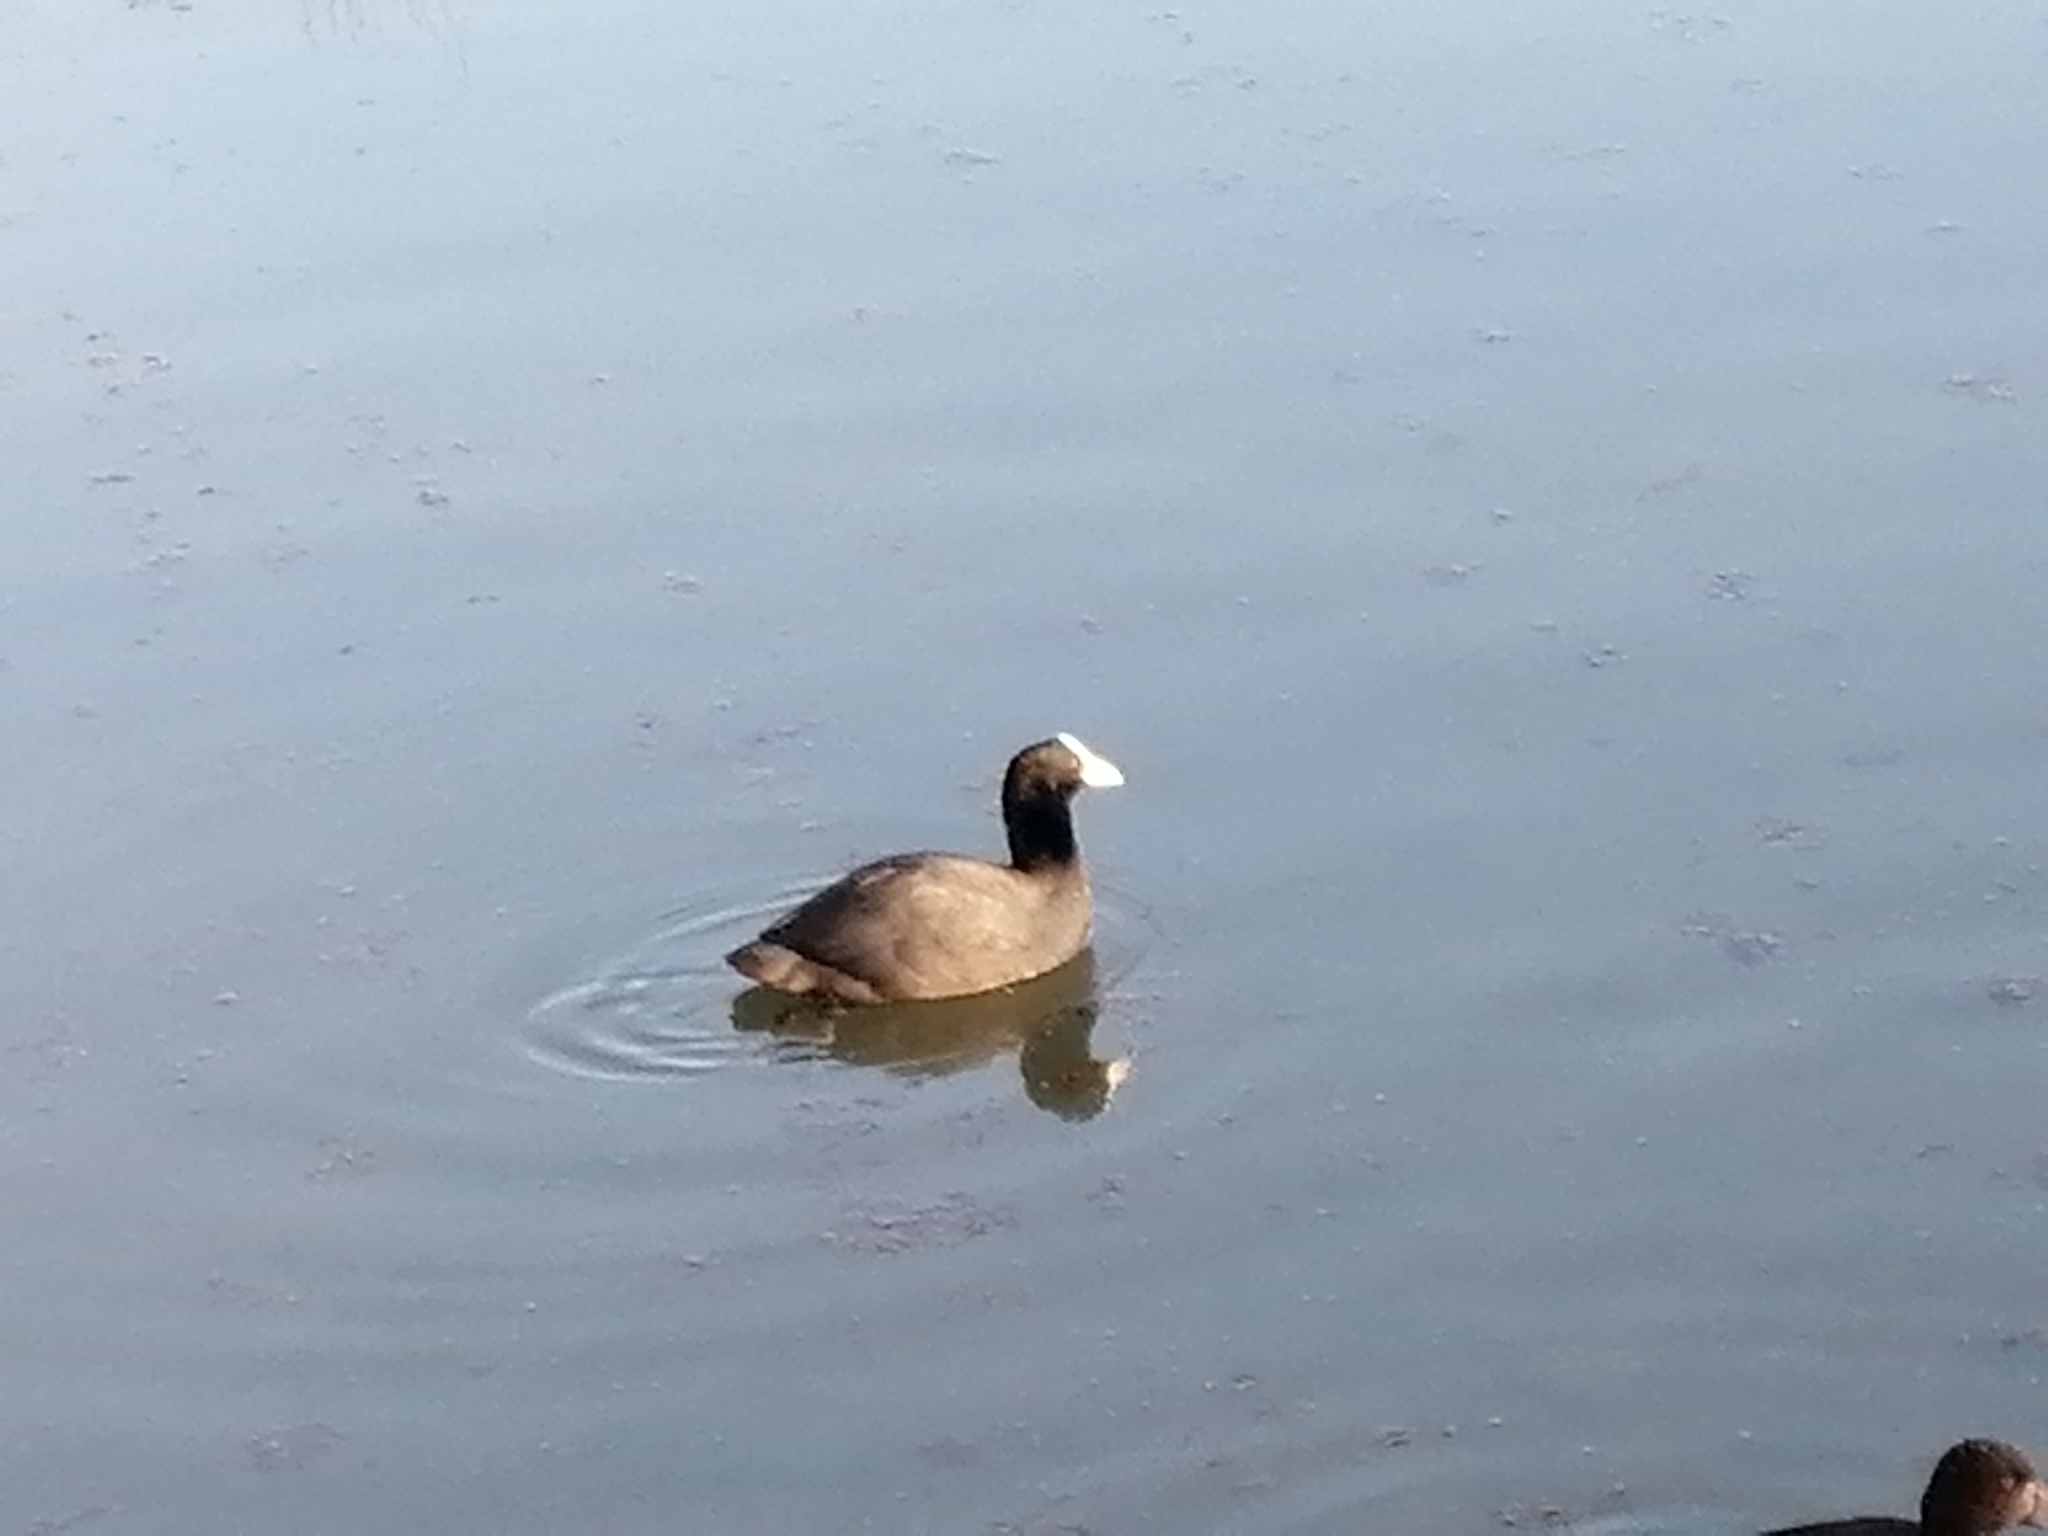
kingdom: Animalia
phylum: Chordata
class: Aves
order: Gruiformes
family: Rallidae
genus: Fulica
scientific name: Fulica atra
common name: Eurasian coot
